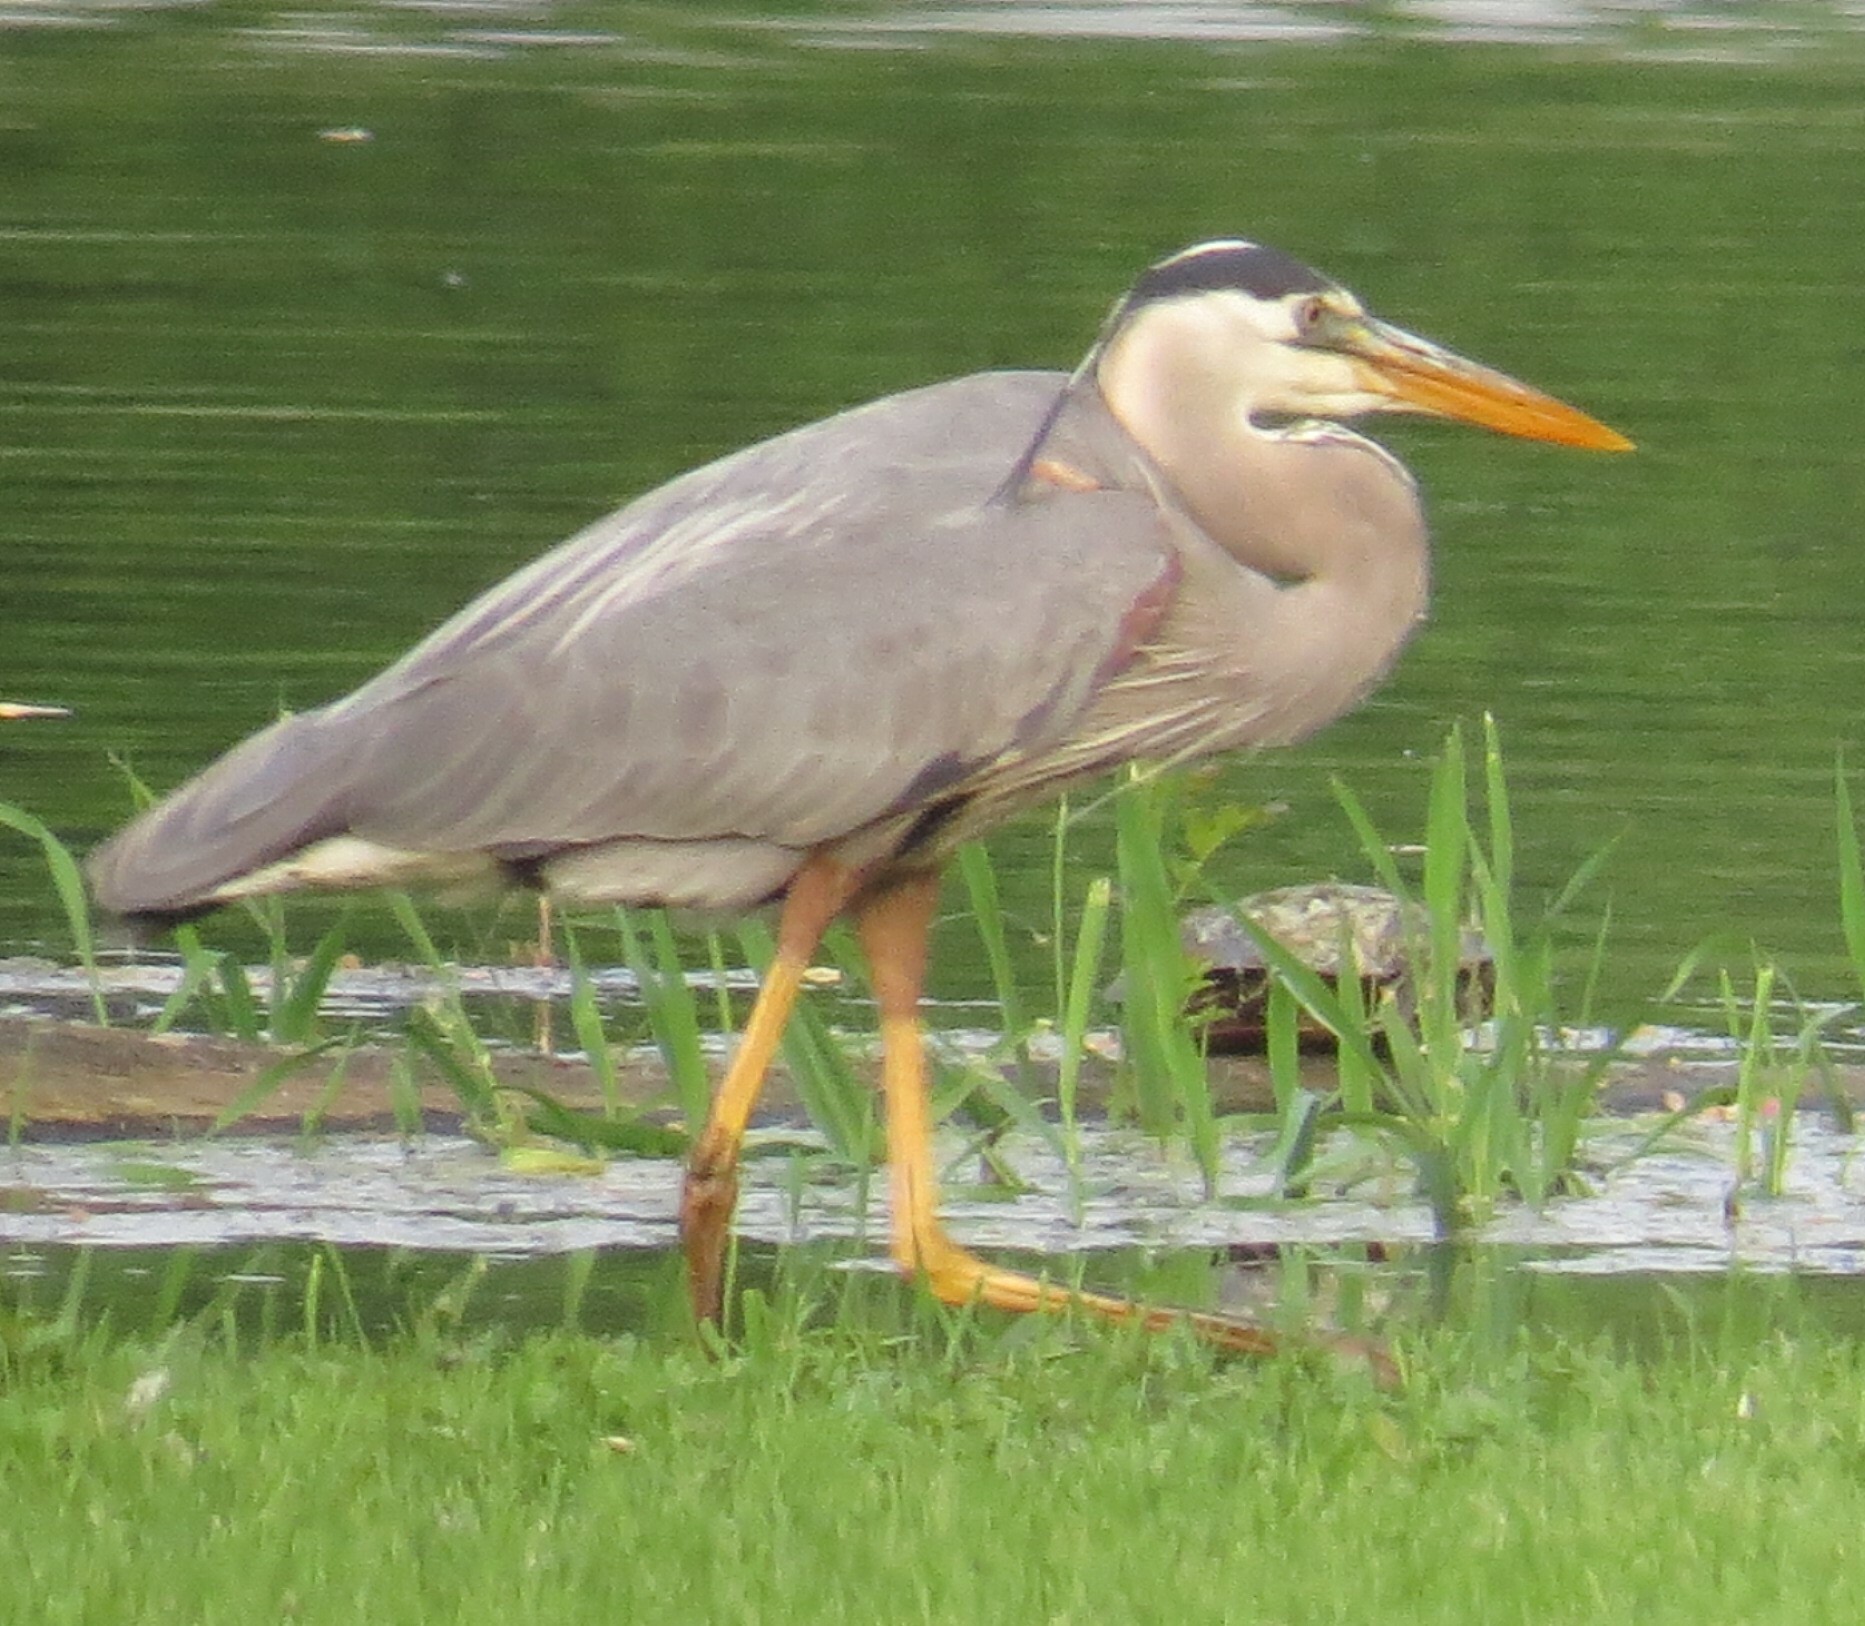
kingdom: Animalia
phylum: Chordata
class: Aves
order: Pelecaniformes
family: Ardeidae
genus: Ardea
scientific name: Ardea herodias
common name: Great blue heron
